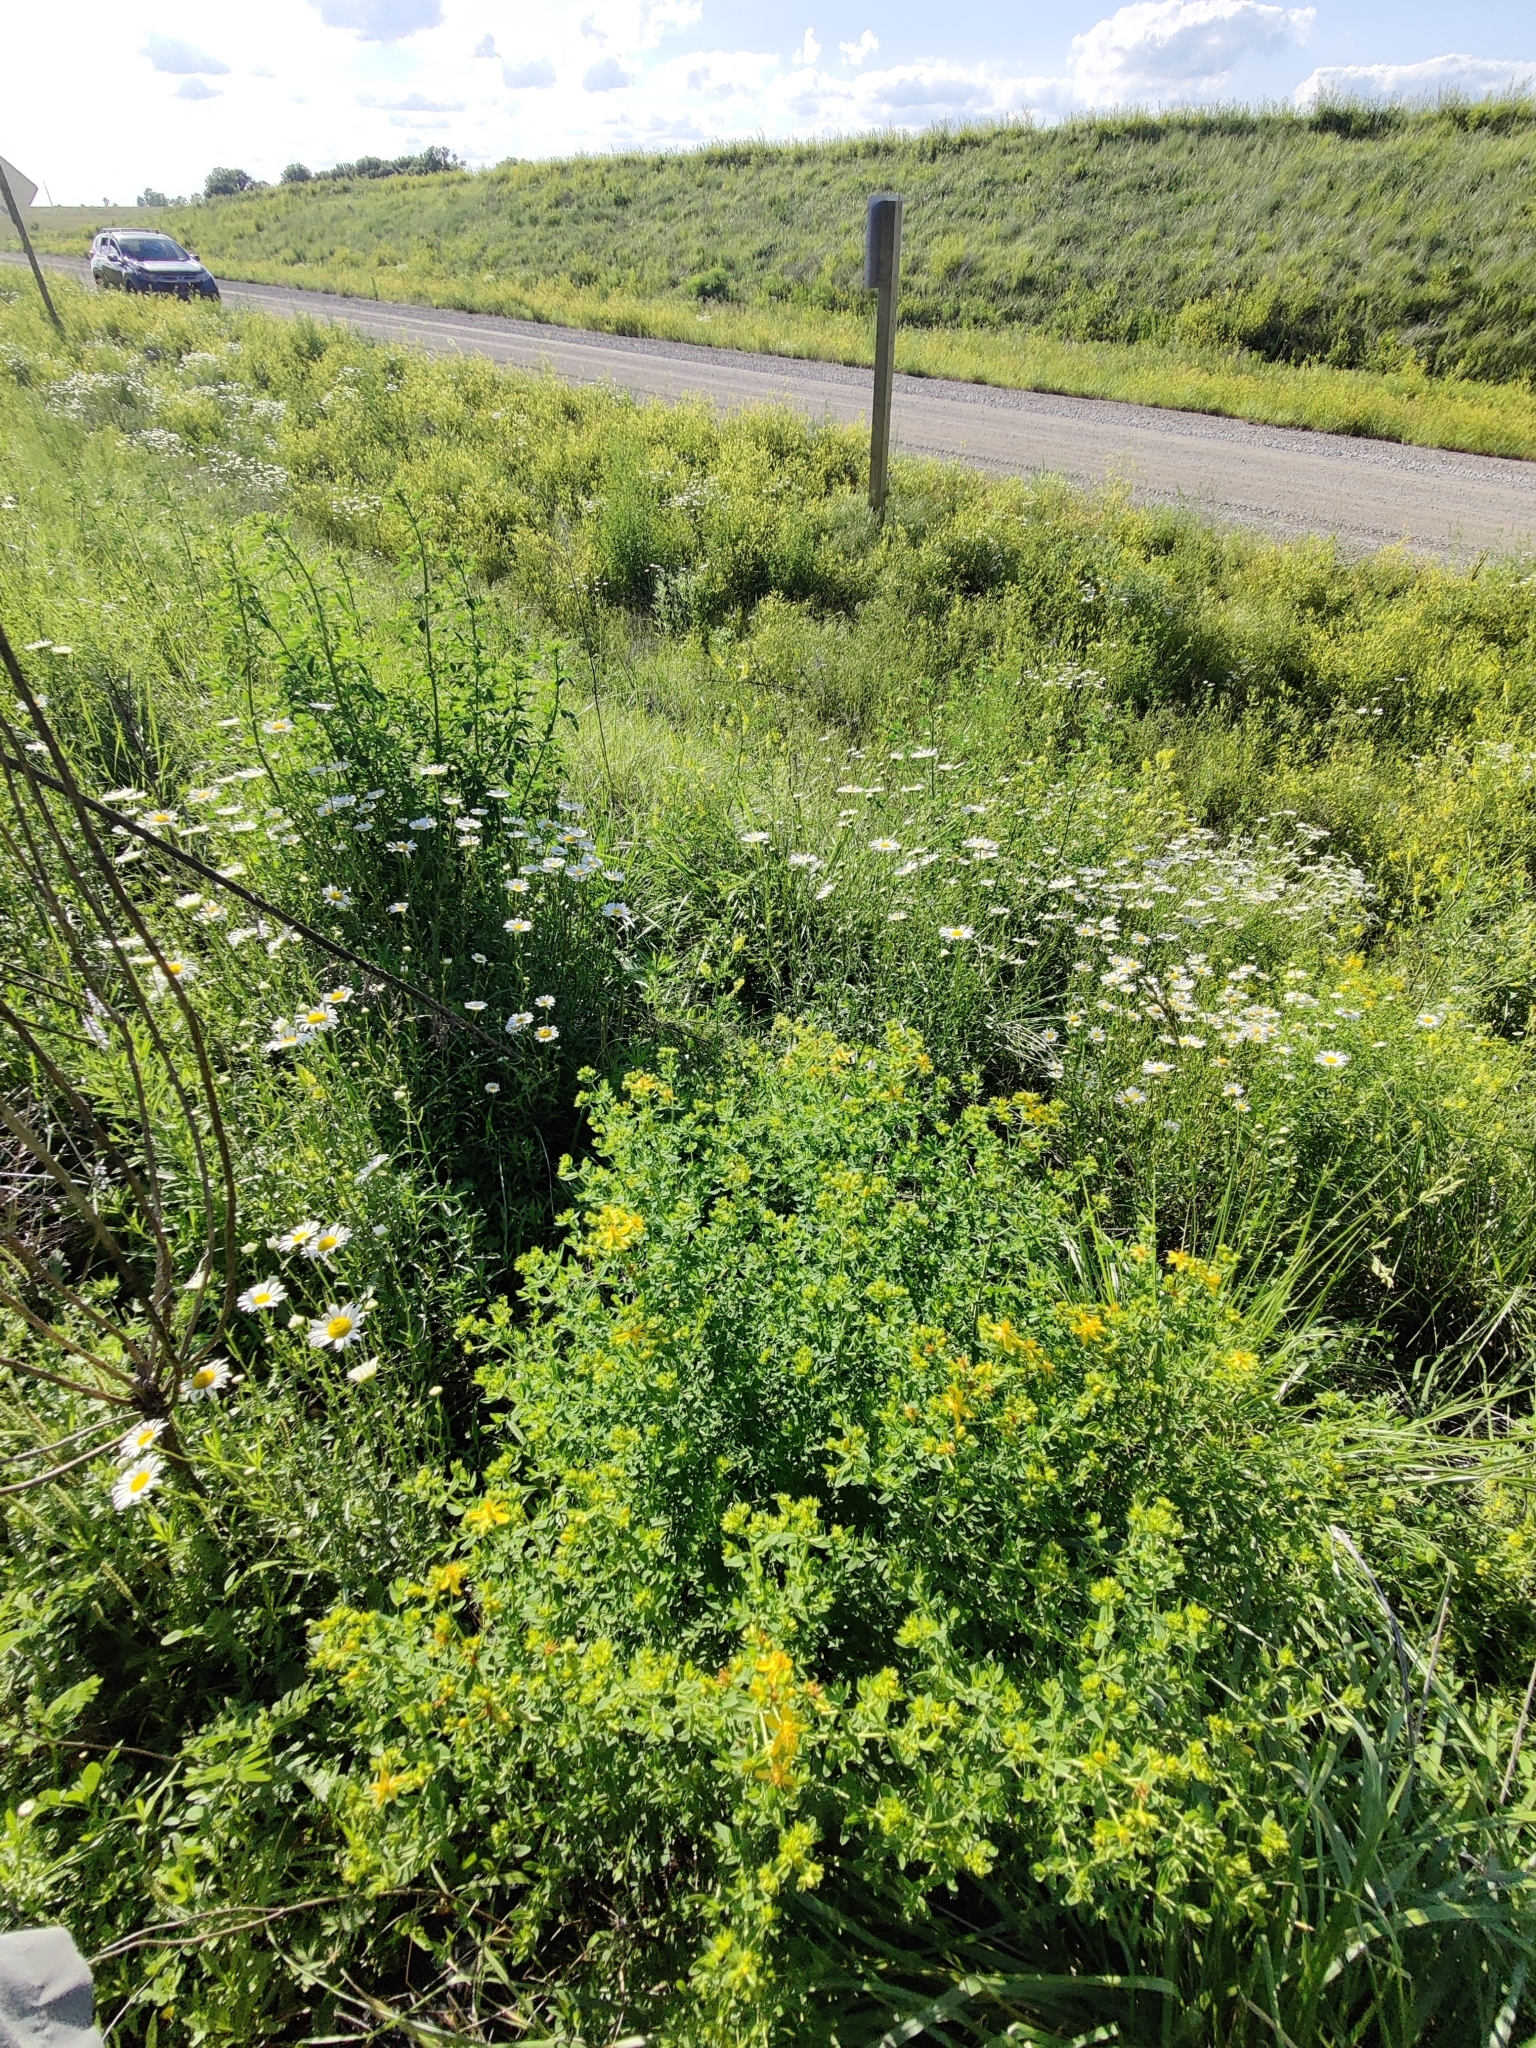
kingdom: Plantae
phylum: Tracheophyta
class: Magnoliopsida
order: Lamiales
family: Verbenaceae
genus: Verbena
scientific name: Verbena simplex
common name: Narrow-leaf vervain
